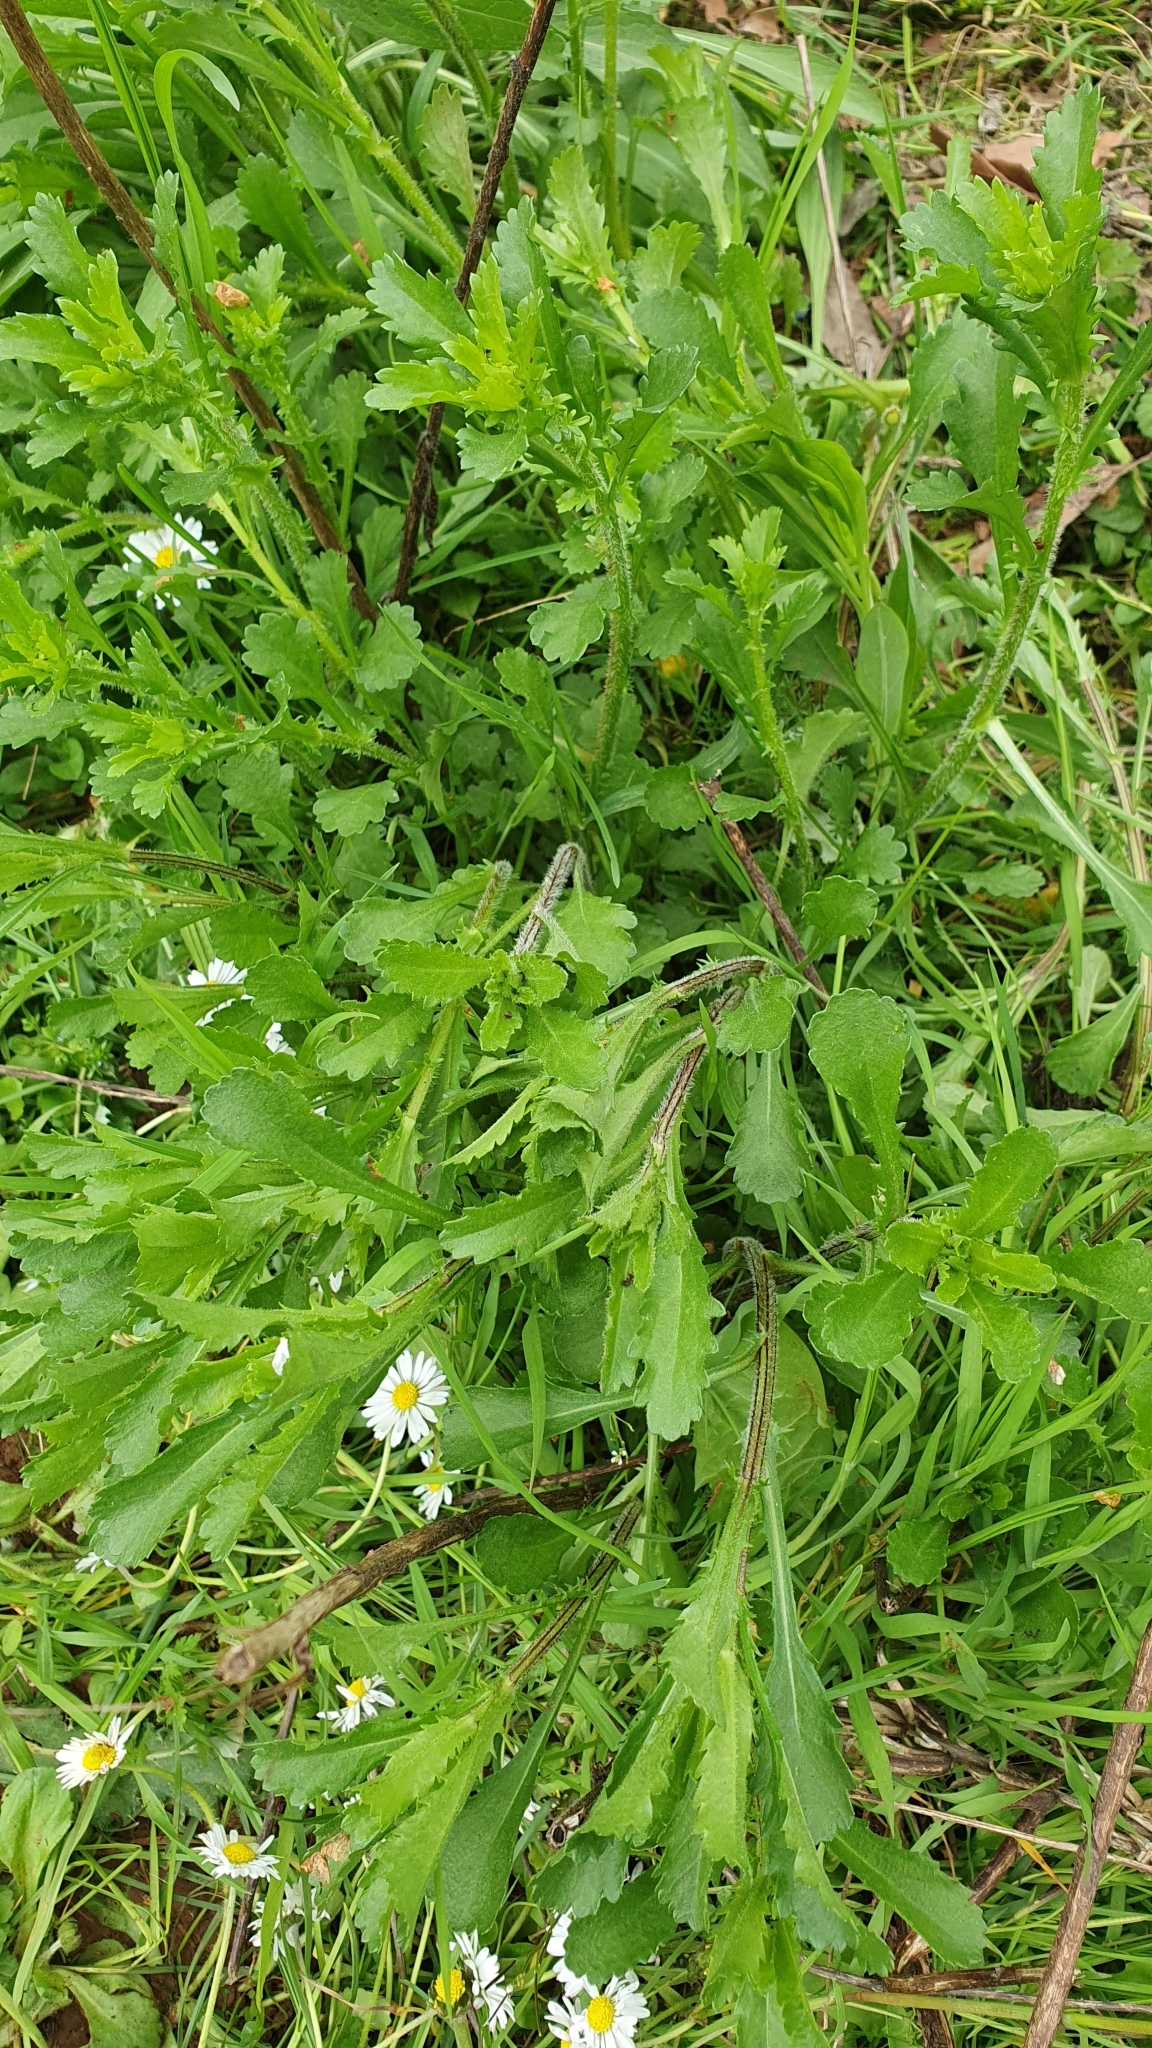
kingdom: Plantae
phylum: Tracheophyta
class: Magnoliopsida
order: Asterales
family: Asteraceae
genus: Leucanthemum
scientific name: Leucanthemum vulgare
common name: Oxeye daisy
